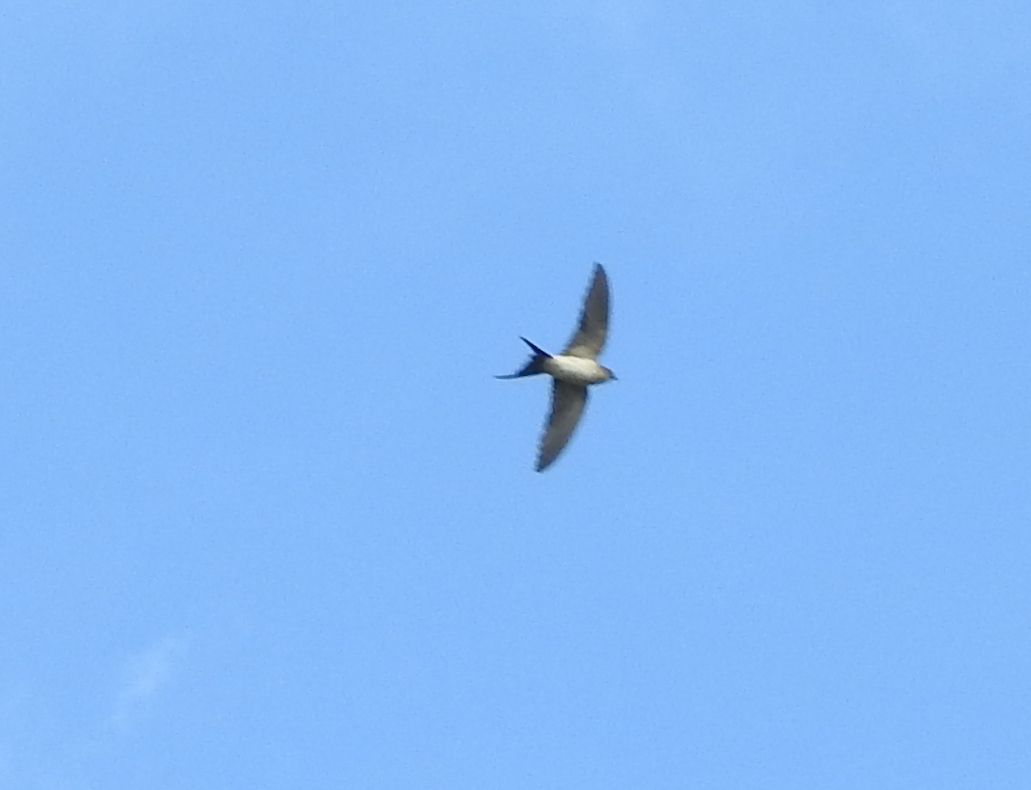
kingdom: Animalia
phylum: Chordata
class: Aves
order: Passeriformes
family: Hirundinidae
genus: Cecropis
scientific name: Cecropis daurica
